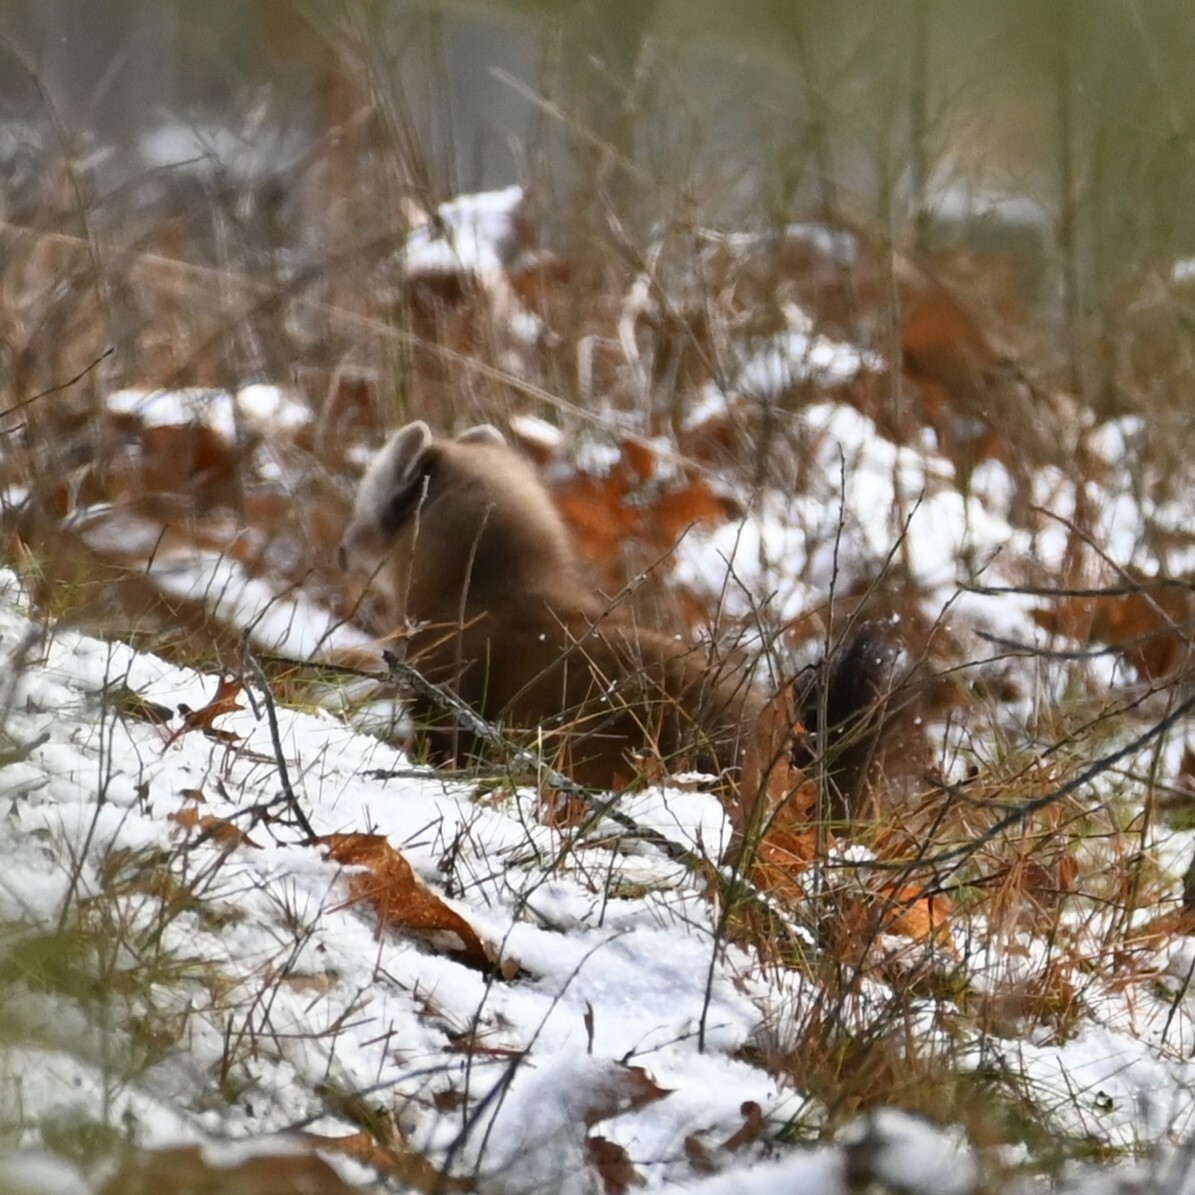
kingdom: Animalia
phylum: Chordata
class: Mammalia
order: Carnivora
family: Mustelidae
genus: Martes
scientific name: Martes americana
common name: American marten
